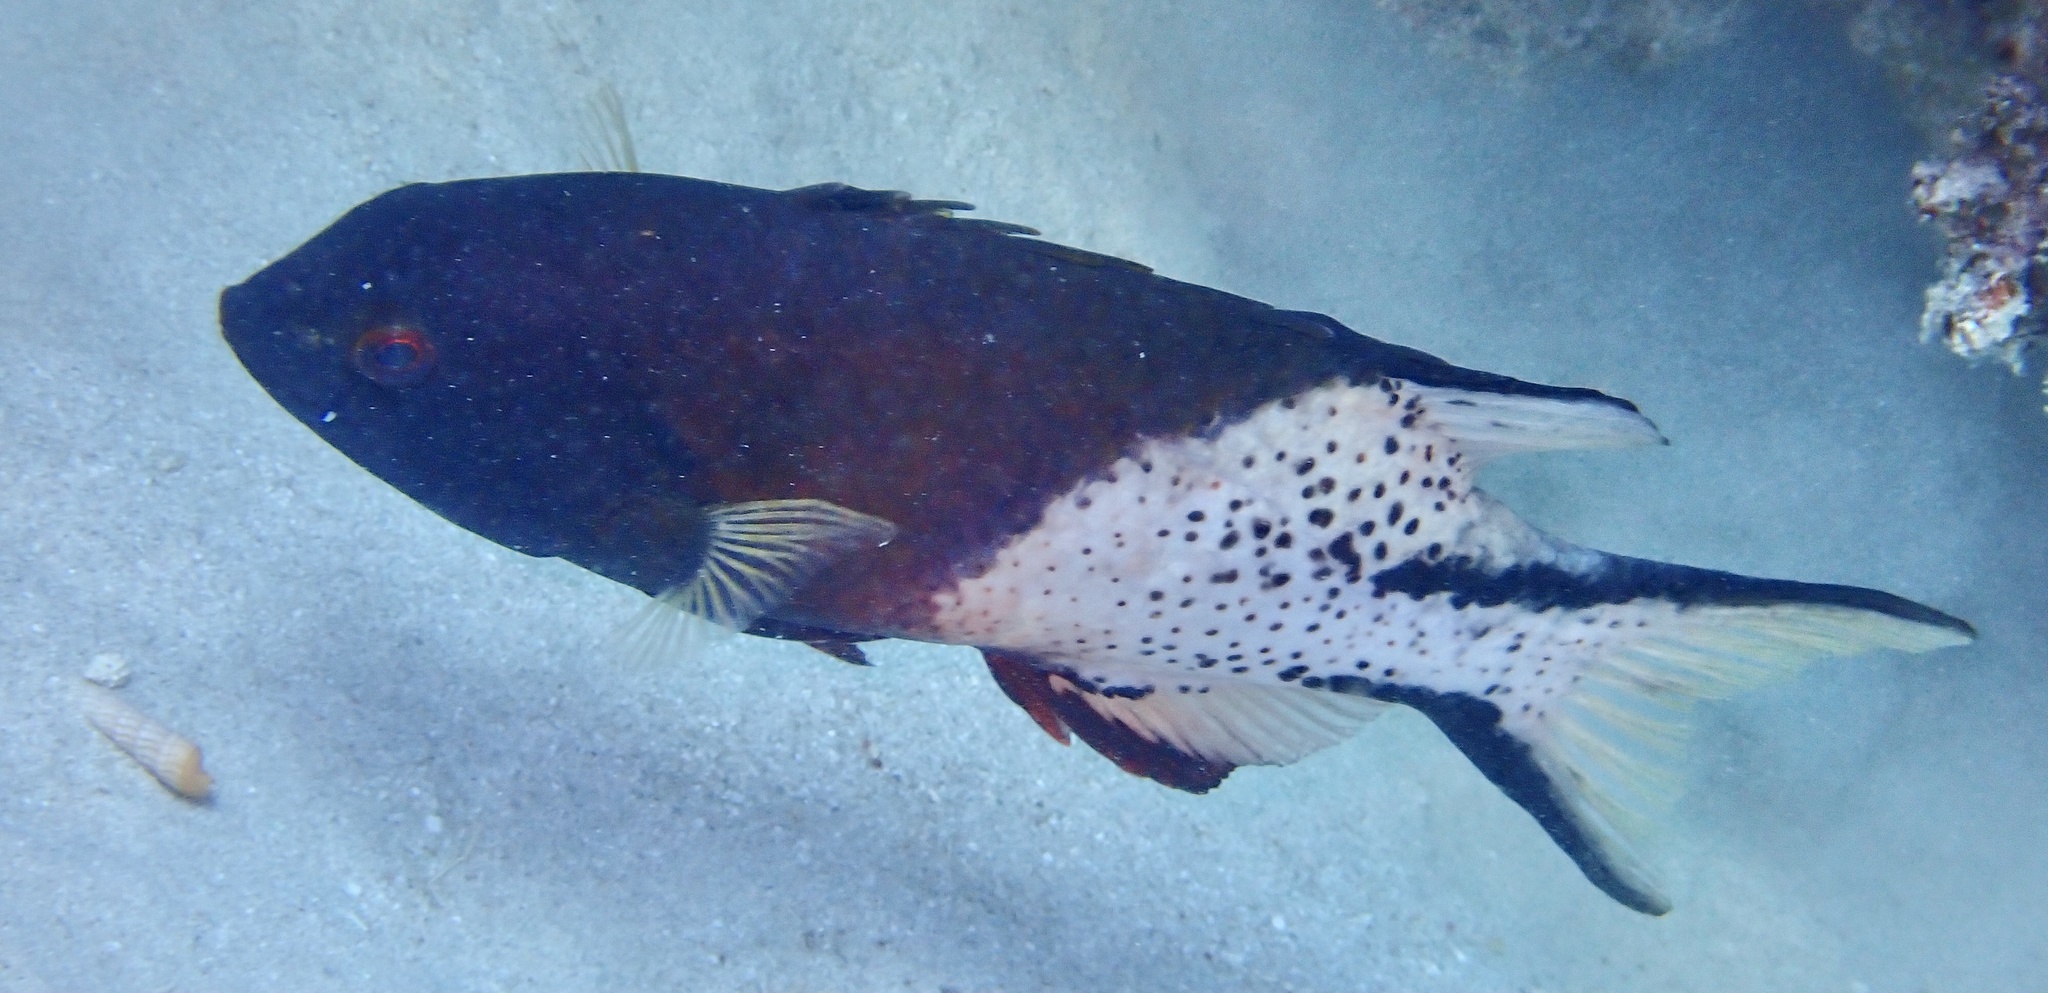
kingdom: Animalia
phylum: Chordata
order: Perciformes
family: Labridae
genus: Bodianus
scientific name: Bodianus anthioides
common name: Lyretail hogfish
